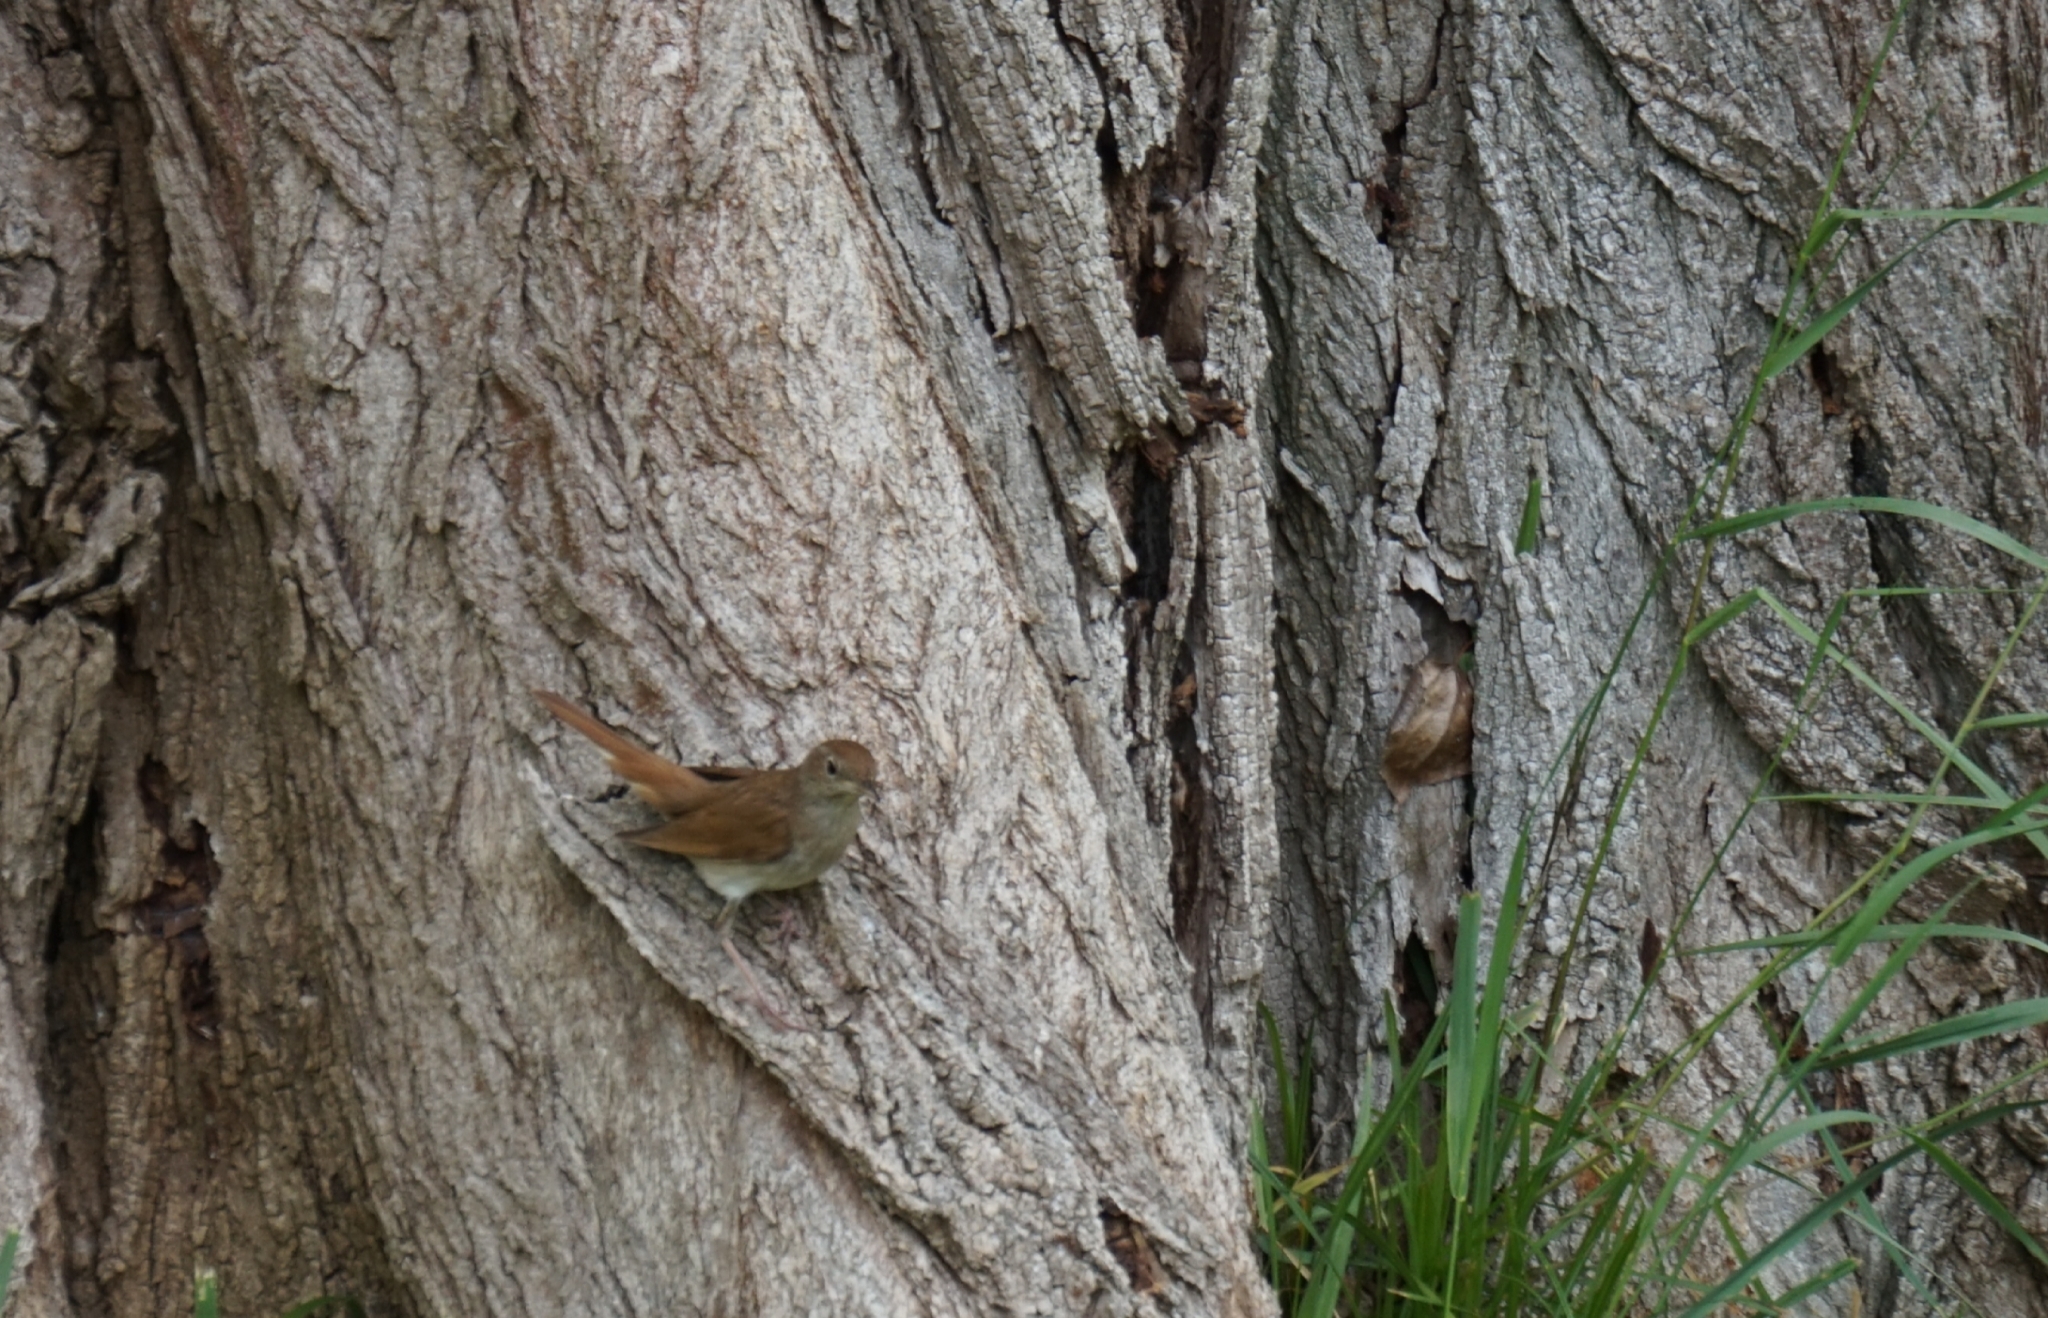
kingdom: Animalia
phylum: Chordata
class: Aves
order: Passeriformes
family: Muscicapidae
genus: Luscinia
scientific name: Luscinia megarhynchos
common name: Common nightingale
